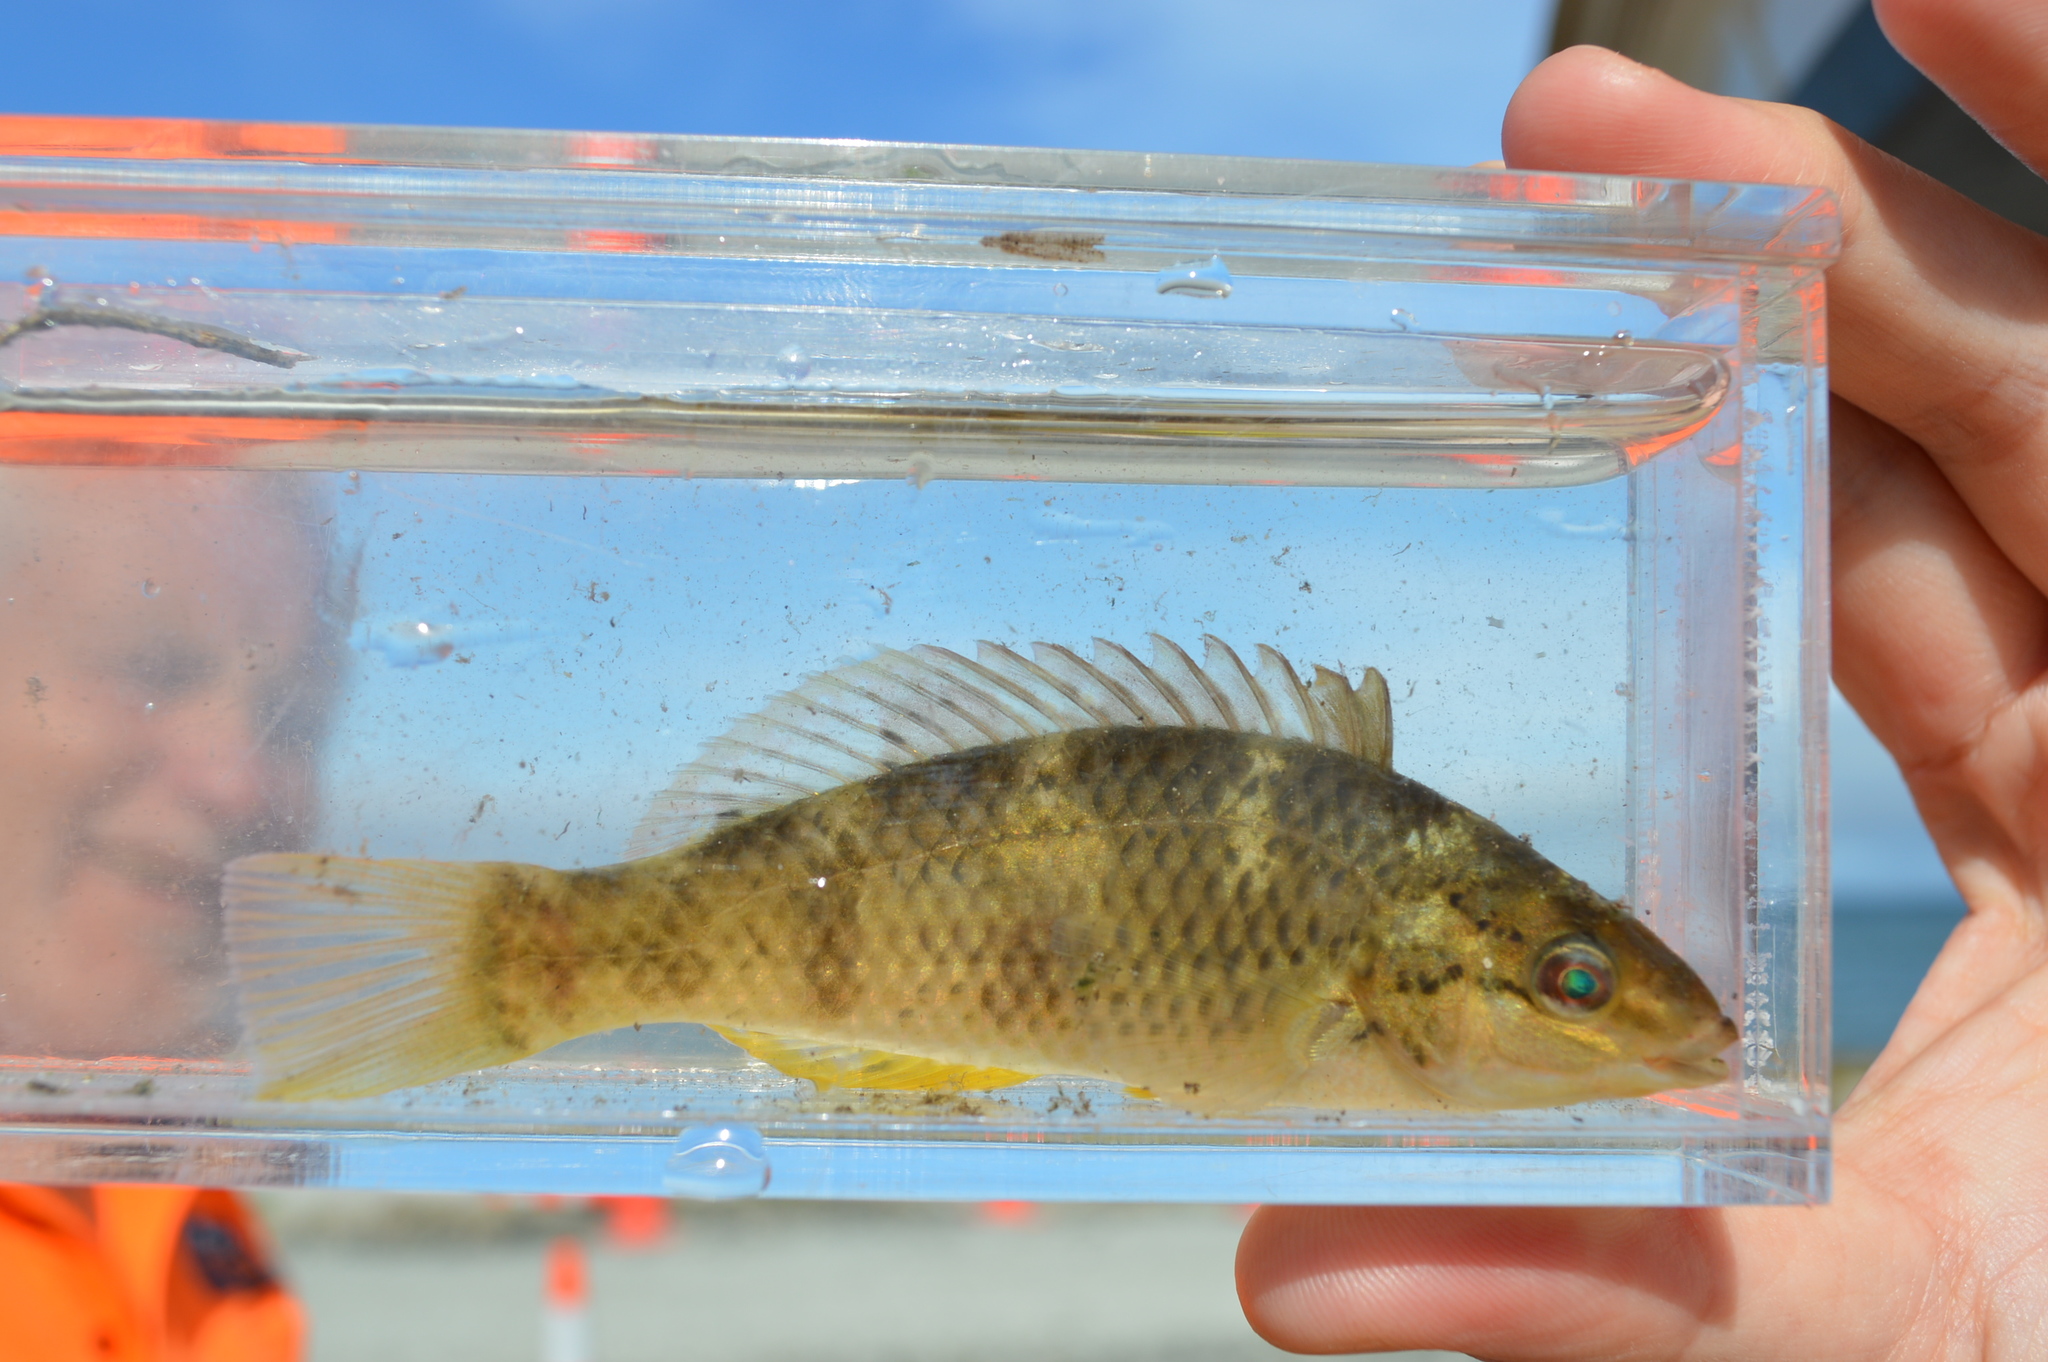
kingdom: Animalia
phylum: Chordata
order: Perciformes
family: Labridae
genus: Notolabrus
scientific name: Notolabrus celidotus
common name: Spotty
